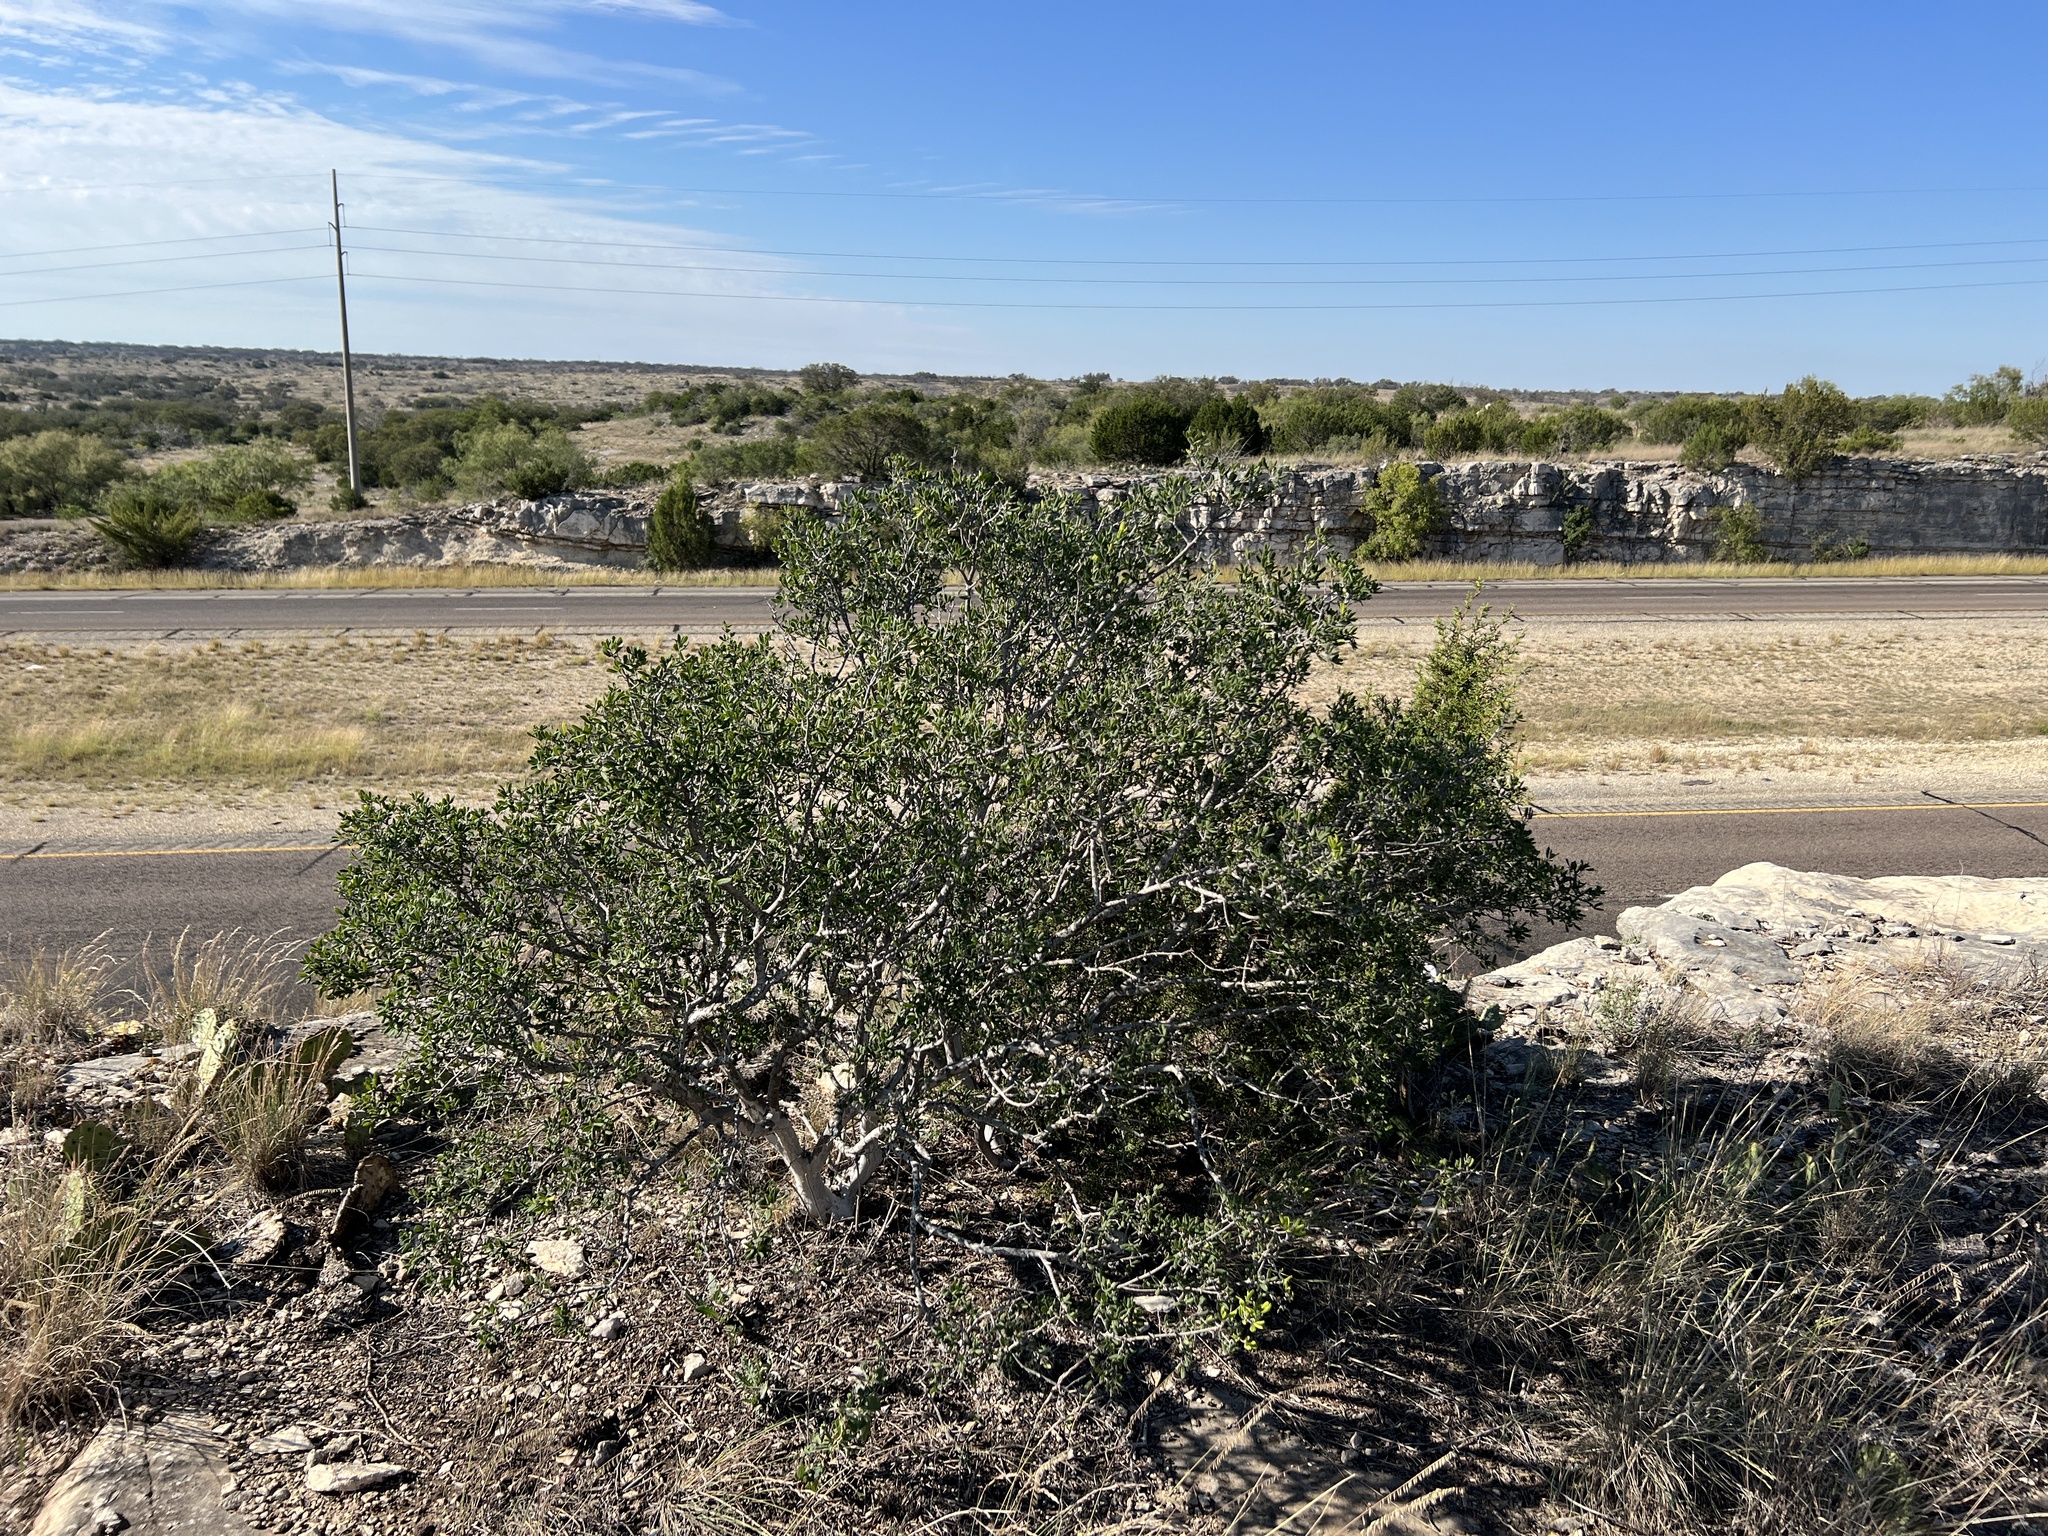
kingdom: Plantae
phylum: Tracheophyta
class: Magnoliopsida
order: Ericales
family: Ebenaceae
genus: Diospyros
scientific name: Diospyros texana
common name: Texas persimmon
